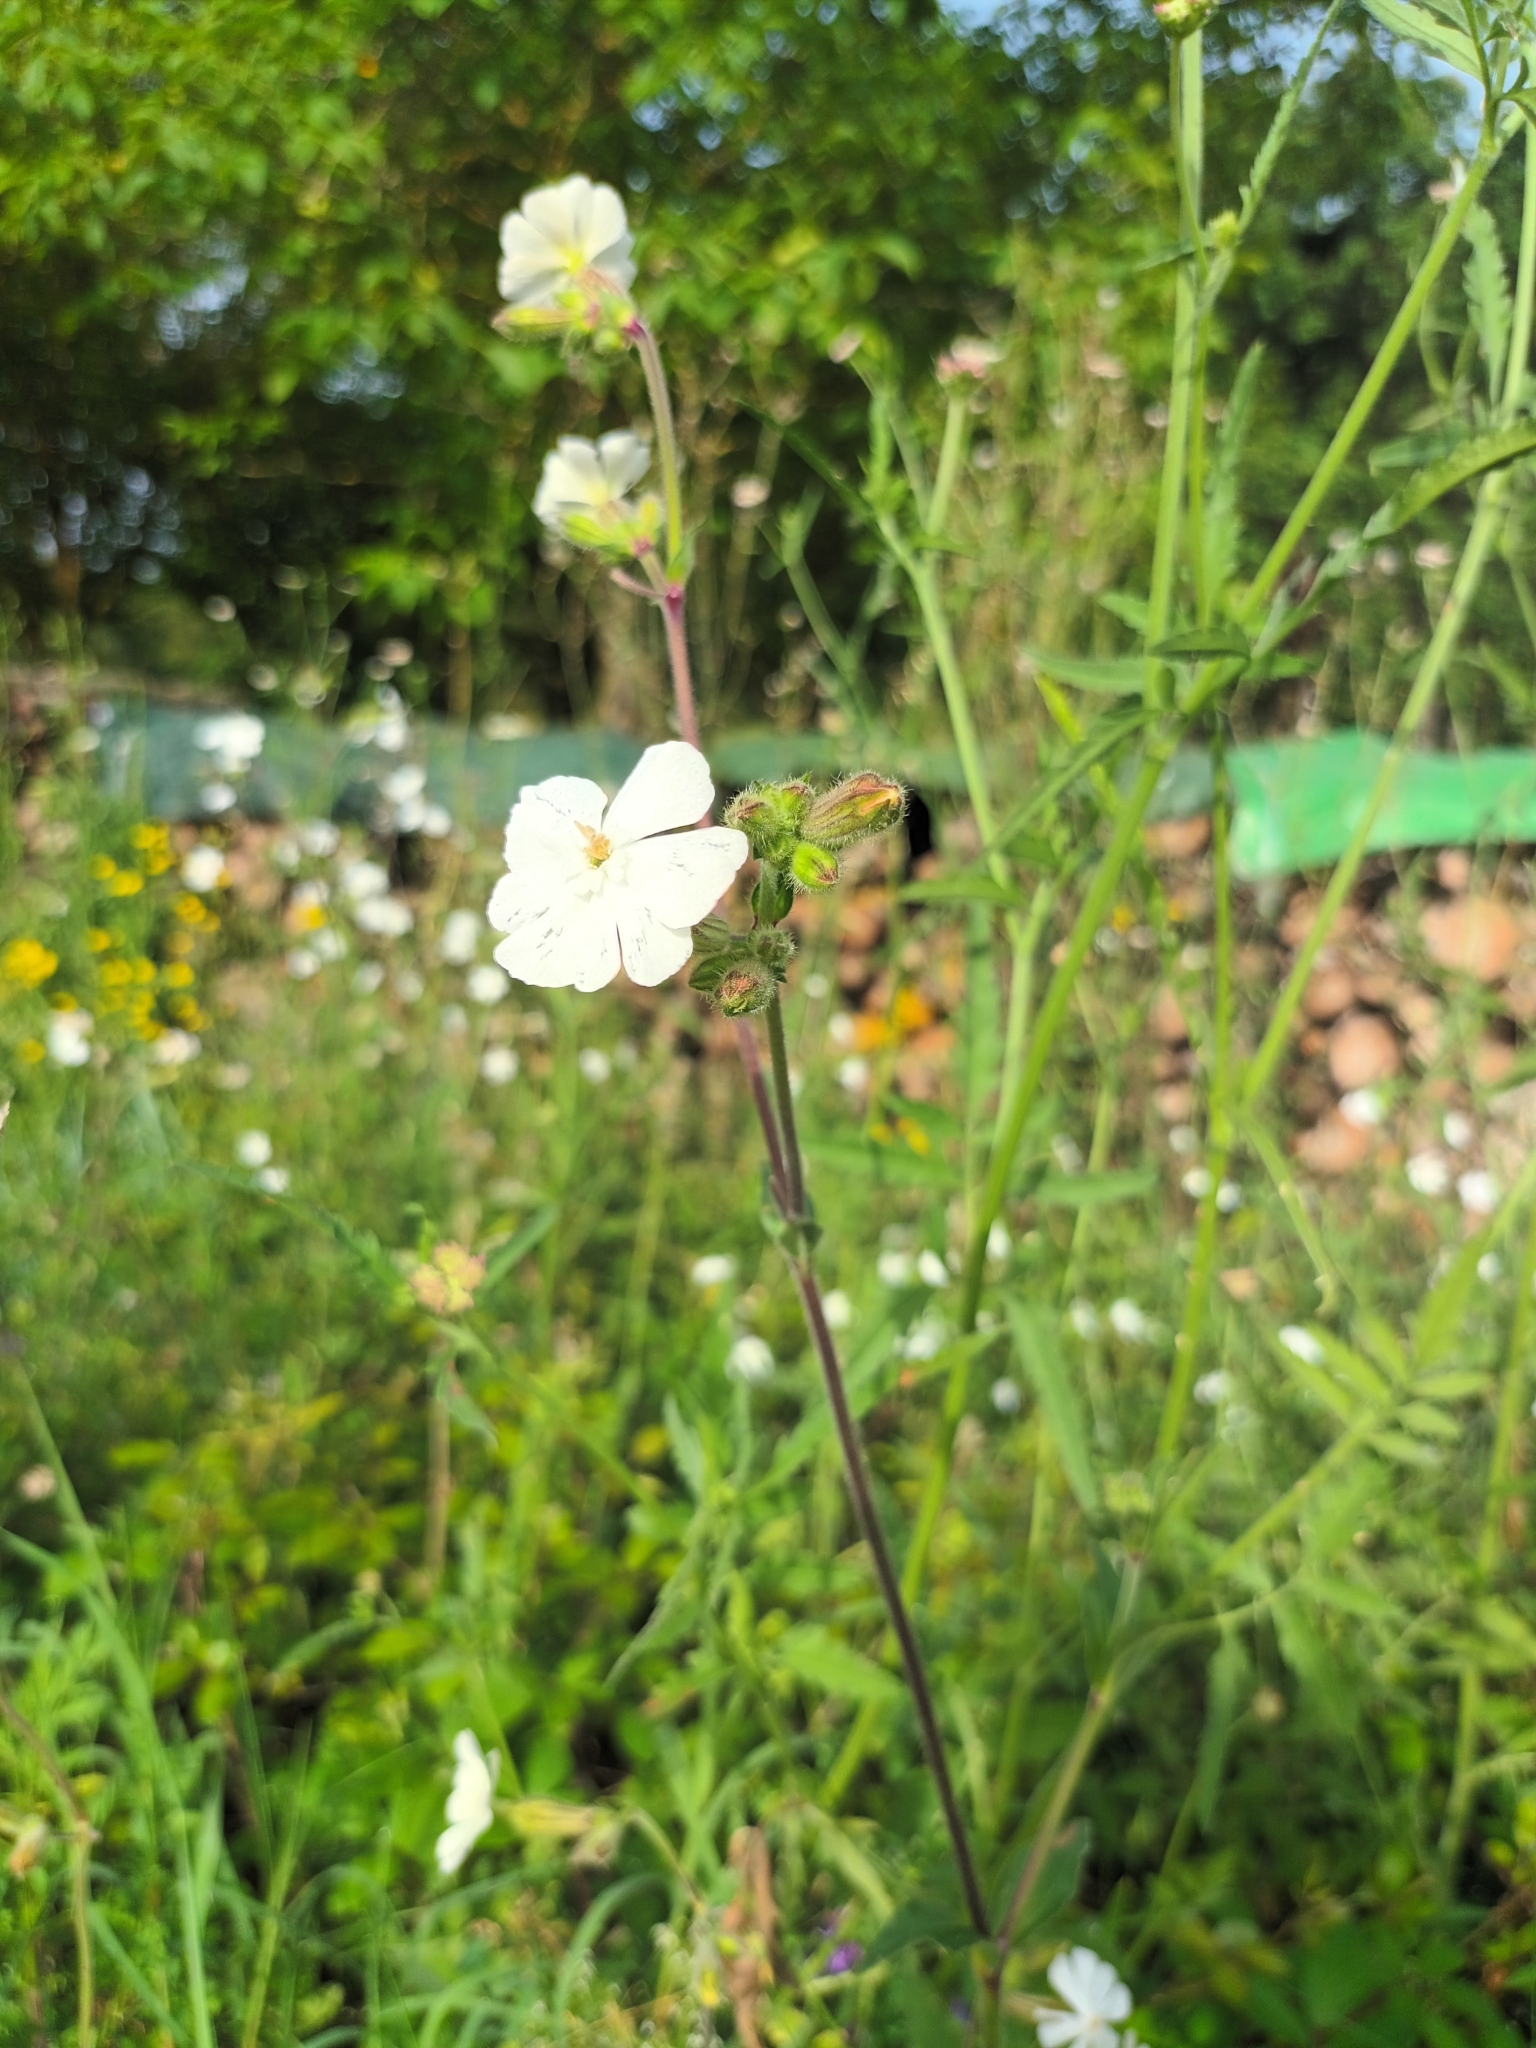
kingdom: Plantae
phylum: Tracheophyta
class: Magnoliopsida
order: Caryophyllales
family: Caryophyllaceae
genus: Silene
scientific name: Silene latifolia
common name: White campion
